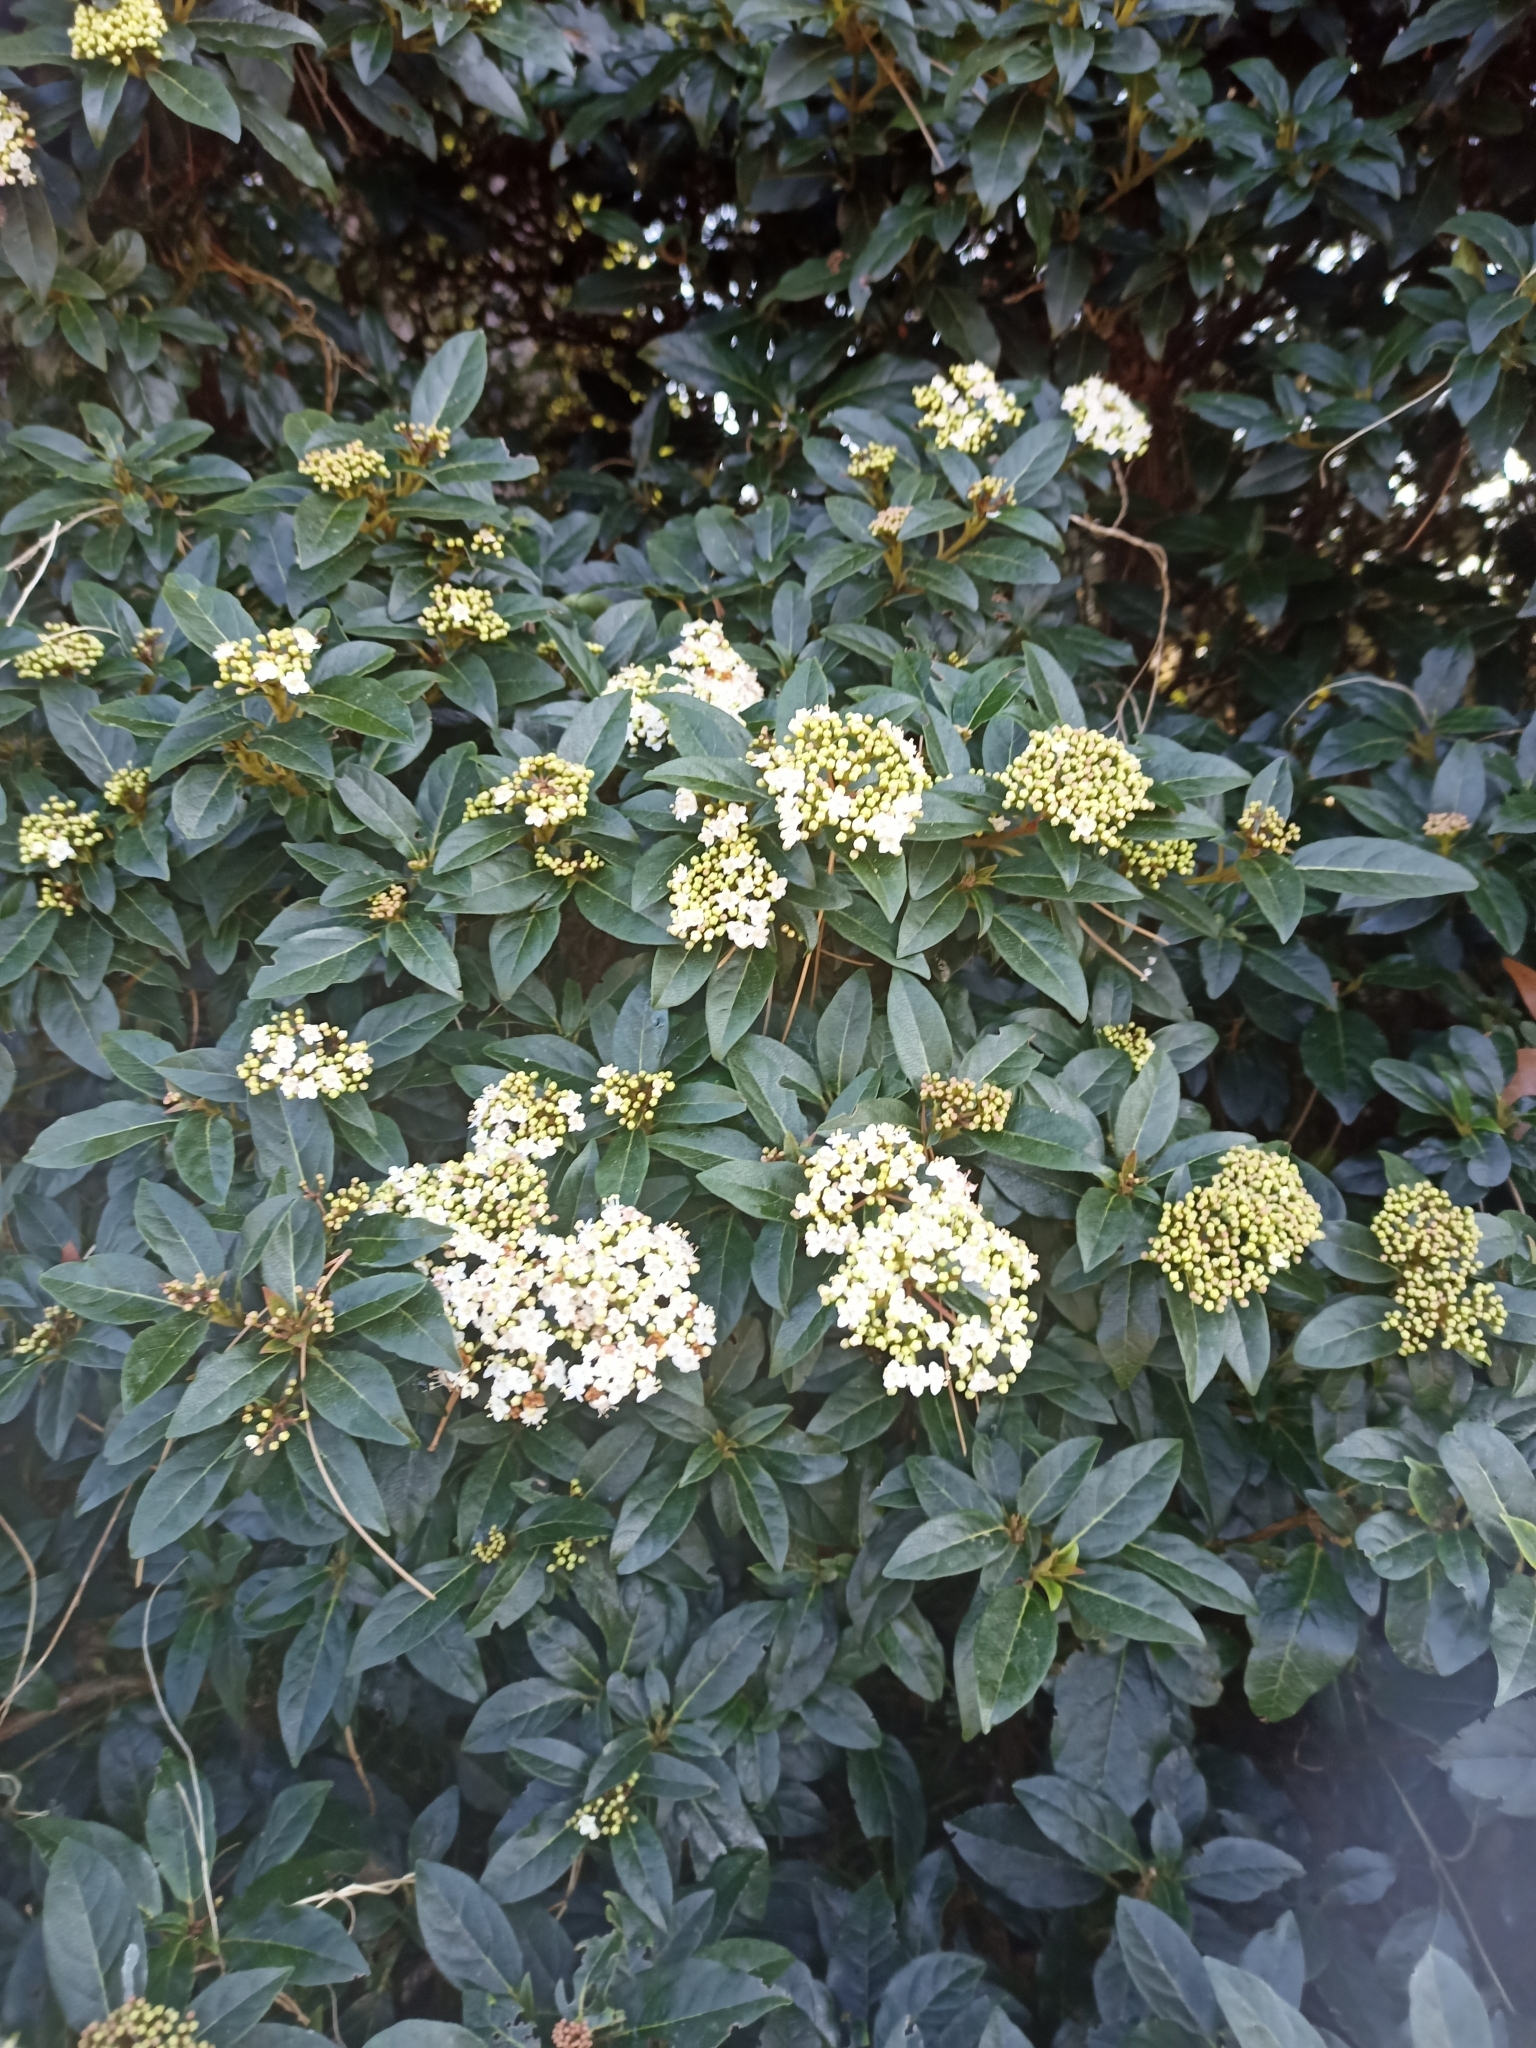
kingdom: Plantae
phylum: Tracheophyta
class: Magnoliopsida
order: Dipsacales
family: Viburnaceae
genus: Viburnum
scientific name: Viburnum tinus
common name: Laurustinus
